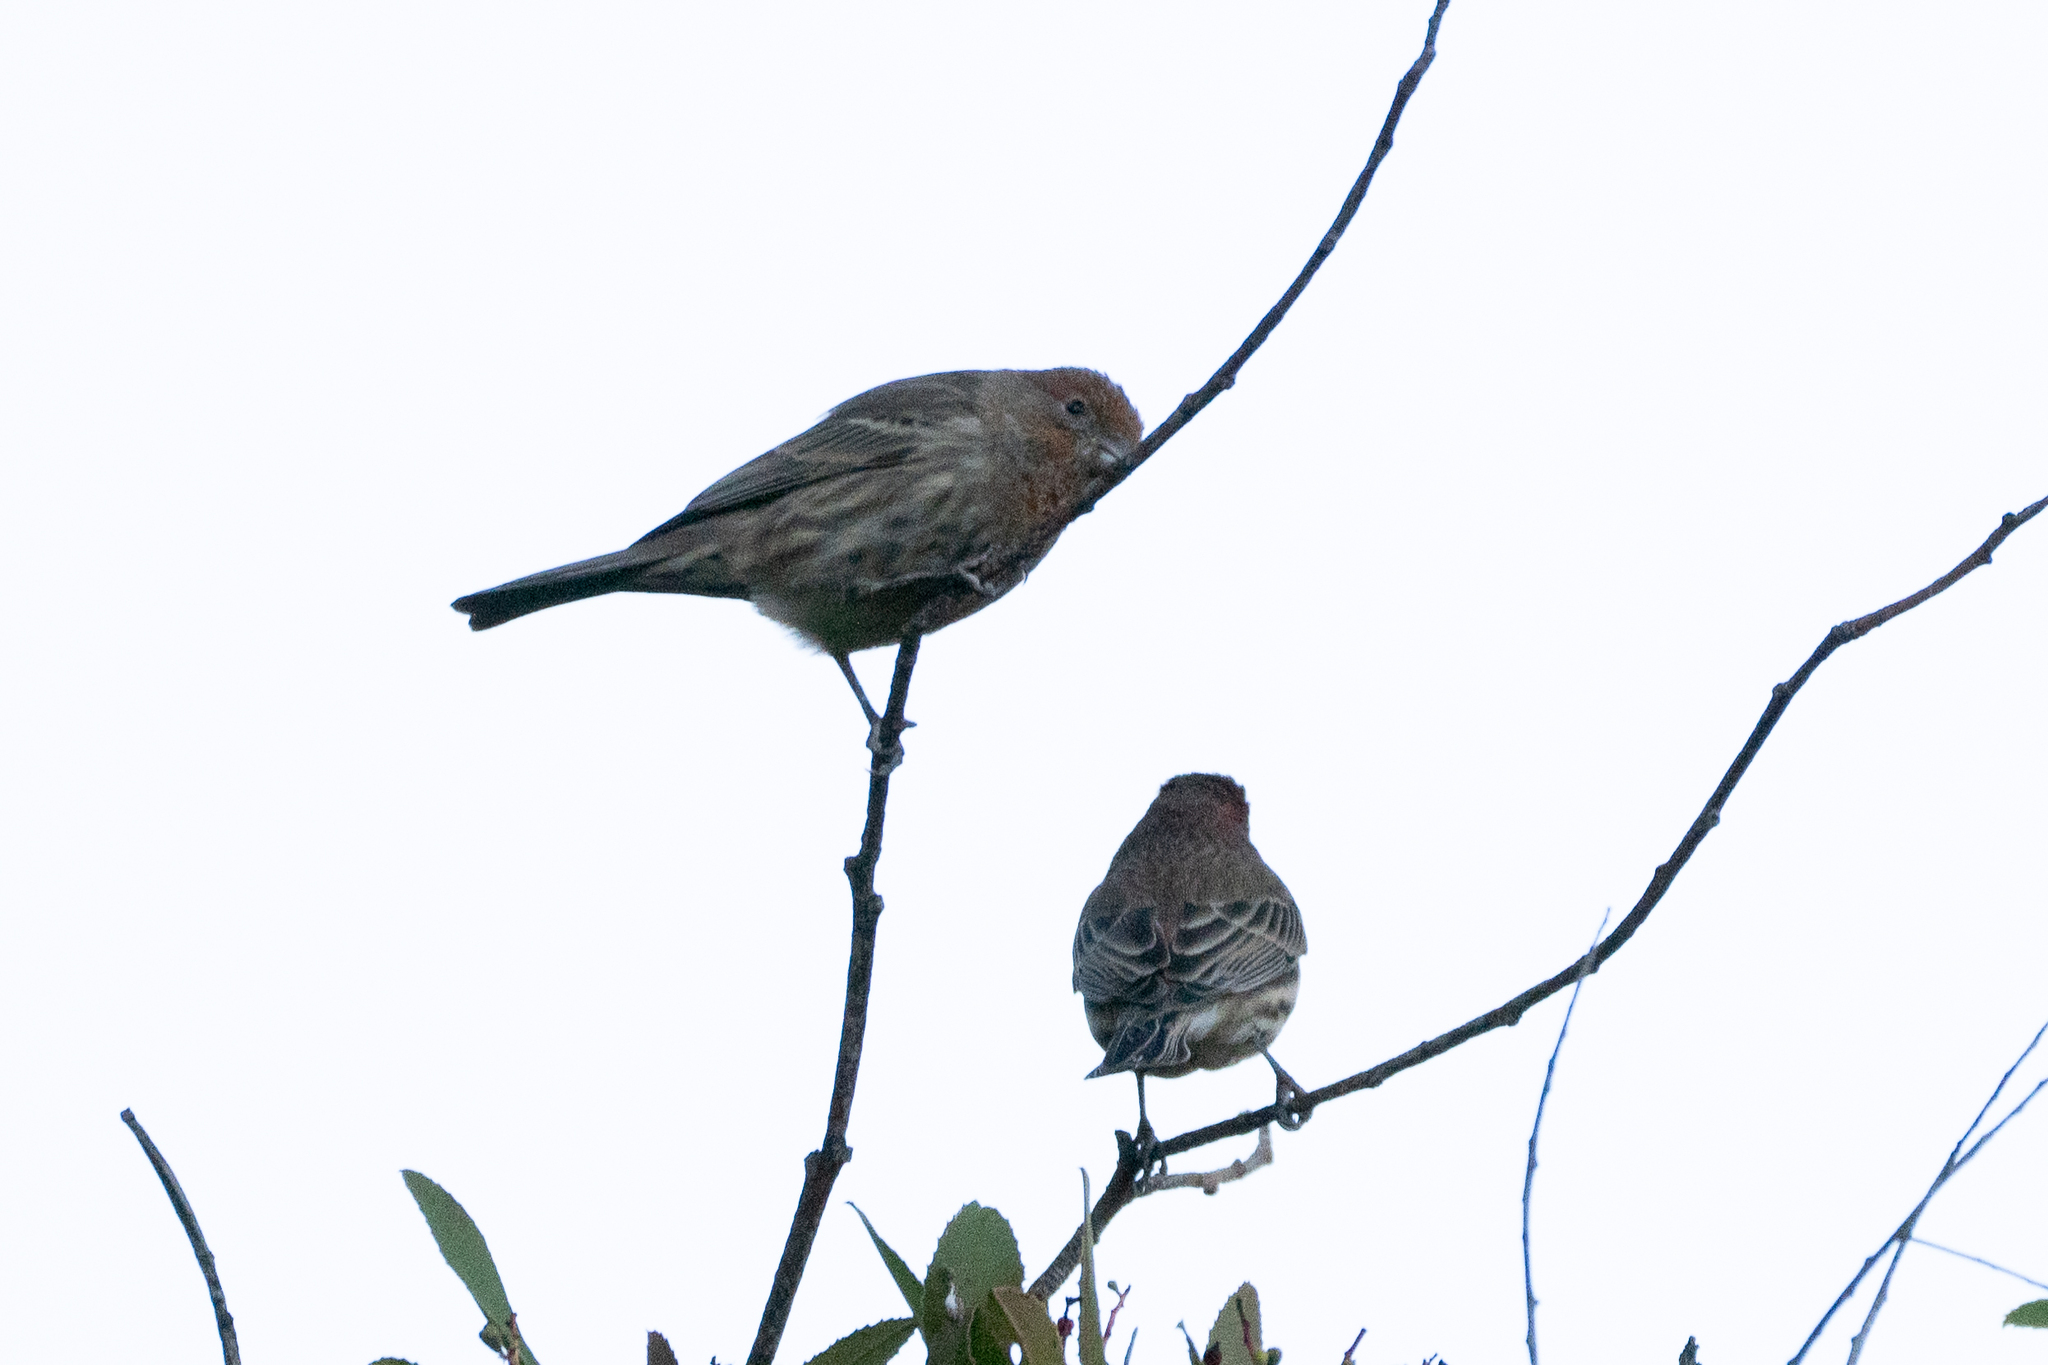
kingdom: Animalia
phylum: Chordata
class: Aves
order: Passeriformes
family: Fringillidae
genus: Haemorhous
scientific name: Haemorhous mexicanus
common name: House finch
